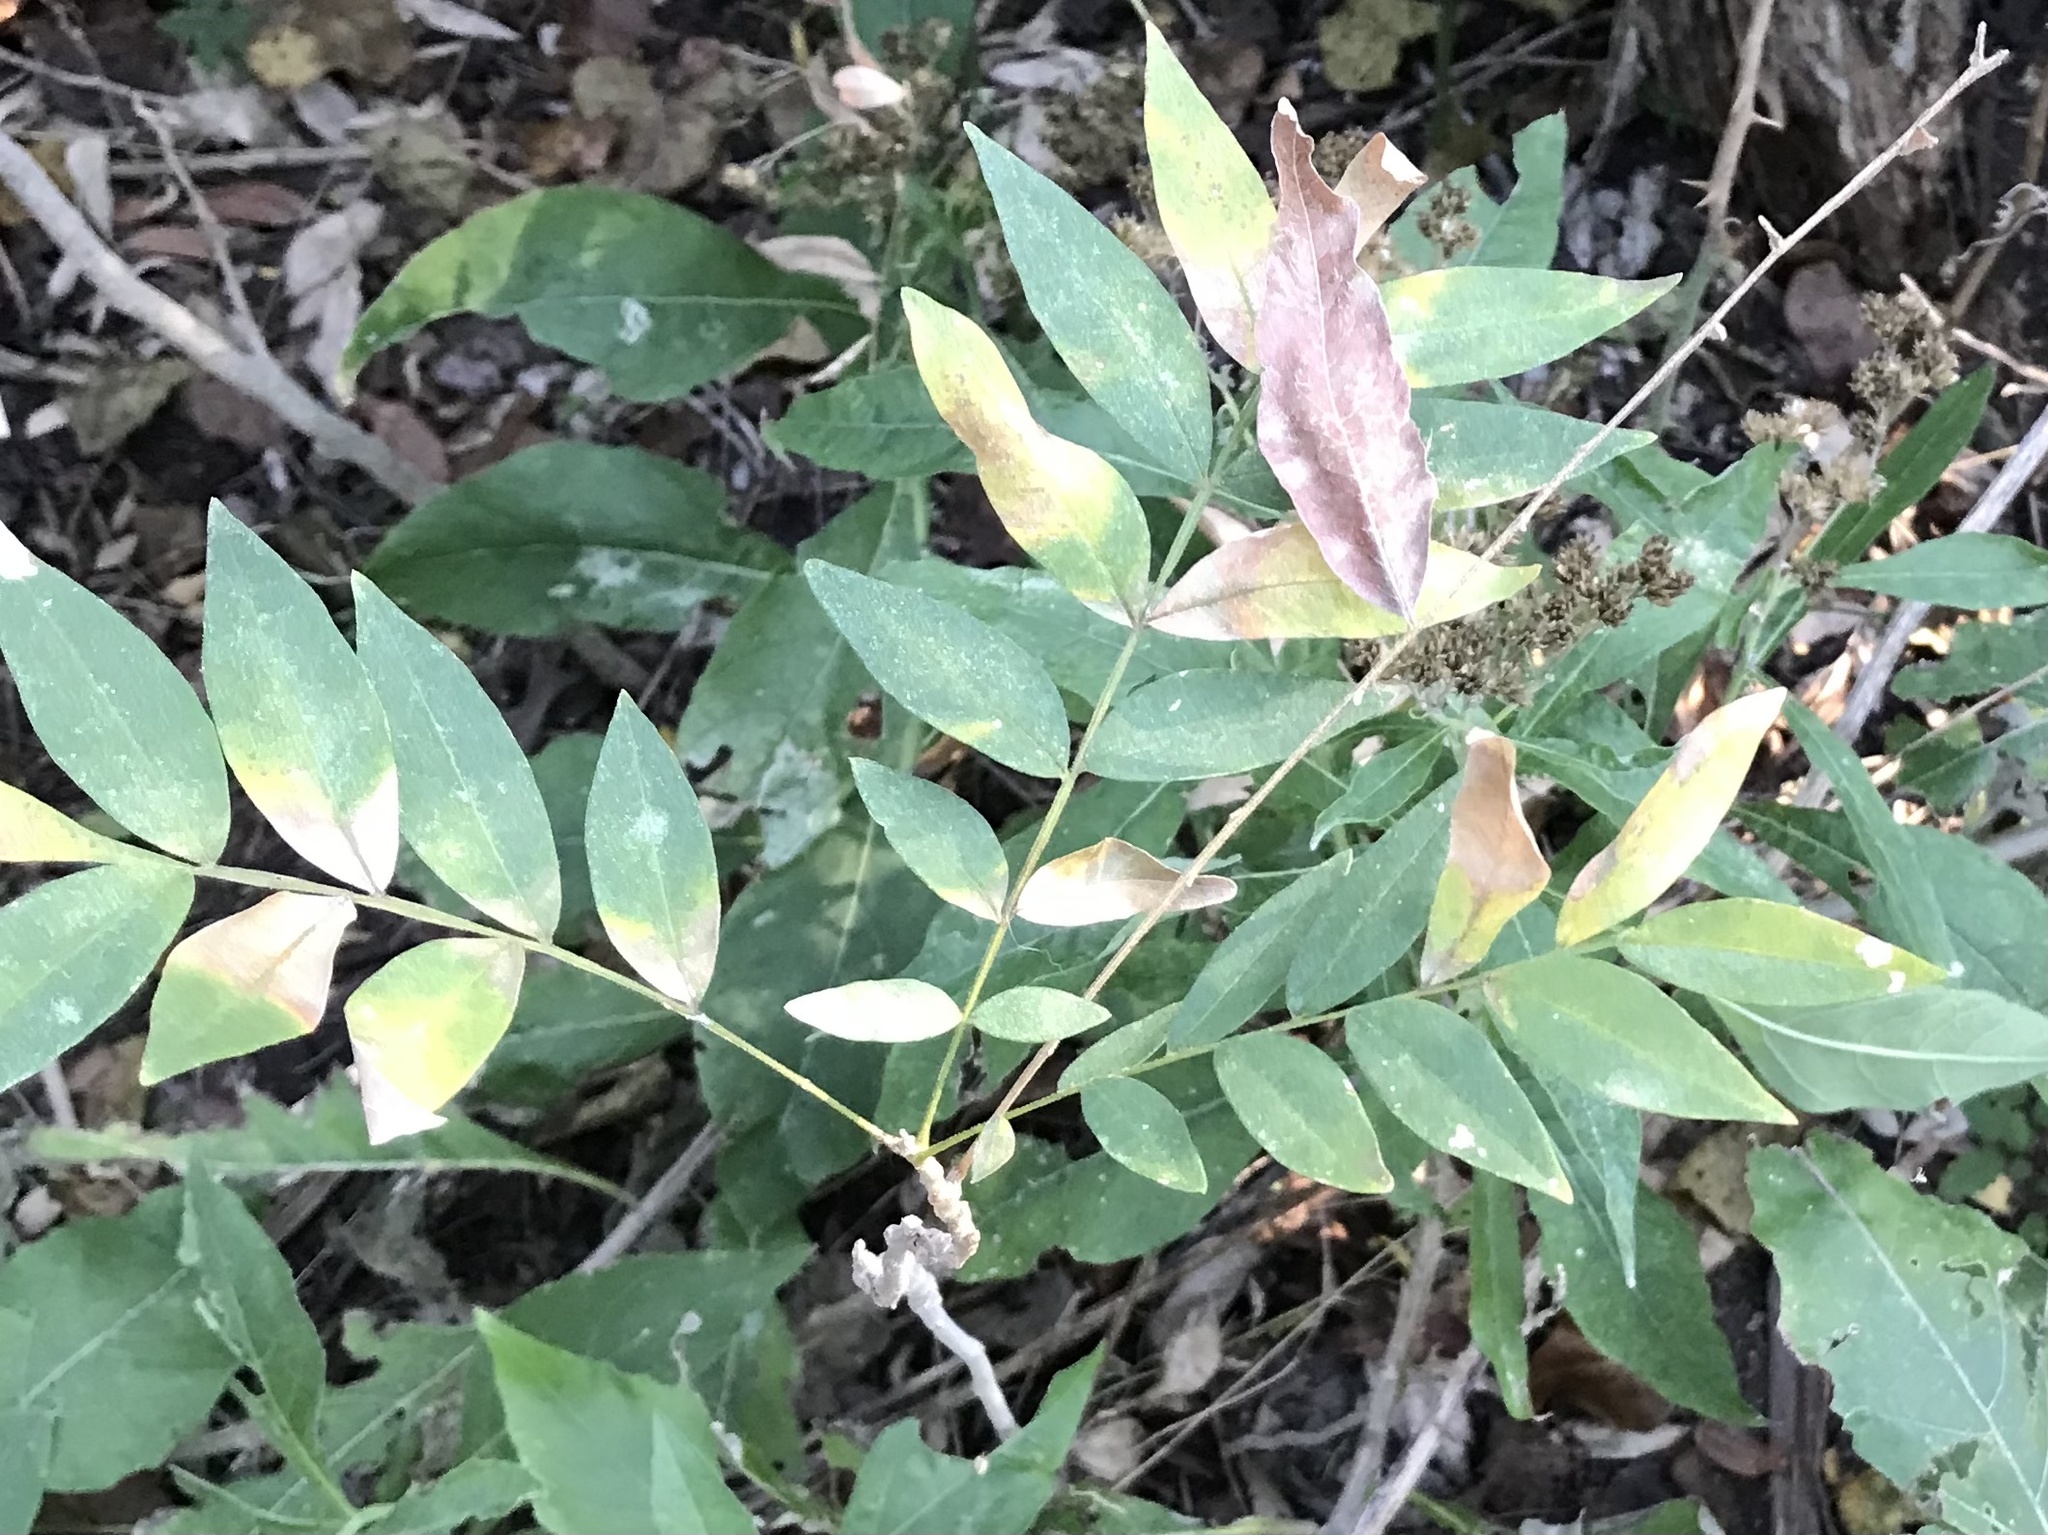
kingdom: Plantae
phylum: Tracheophyta
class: Magnoliopsida
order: Sapindales
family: Sapindaceae
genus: Sapindus
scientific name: Sapindus drummondii
